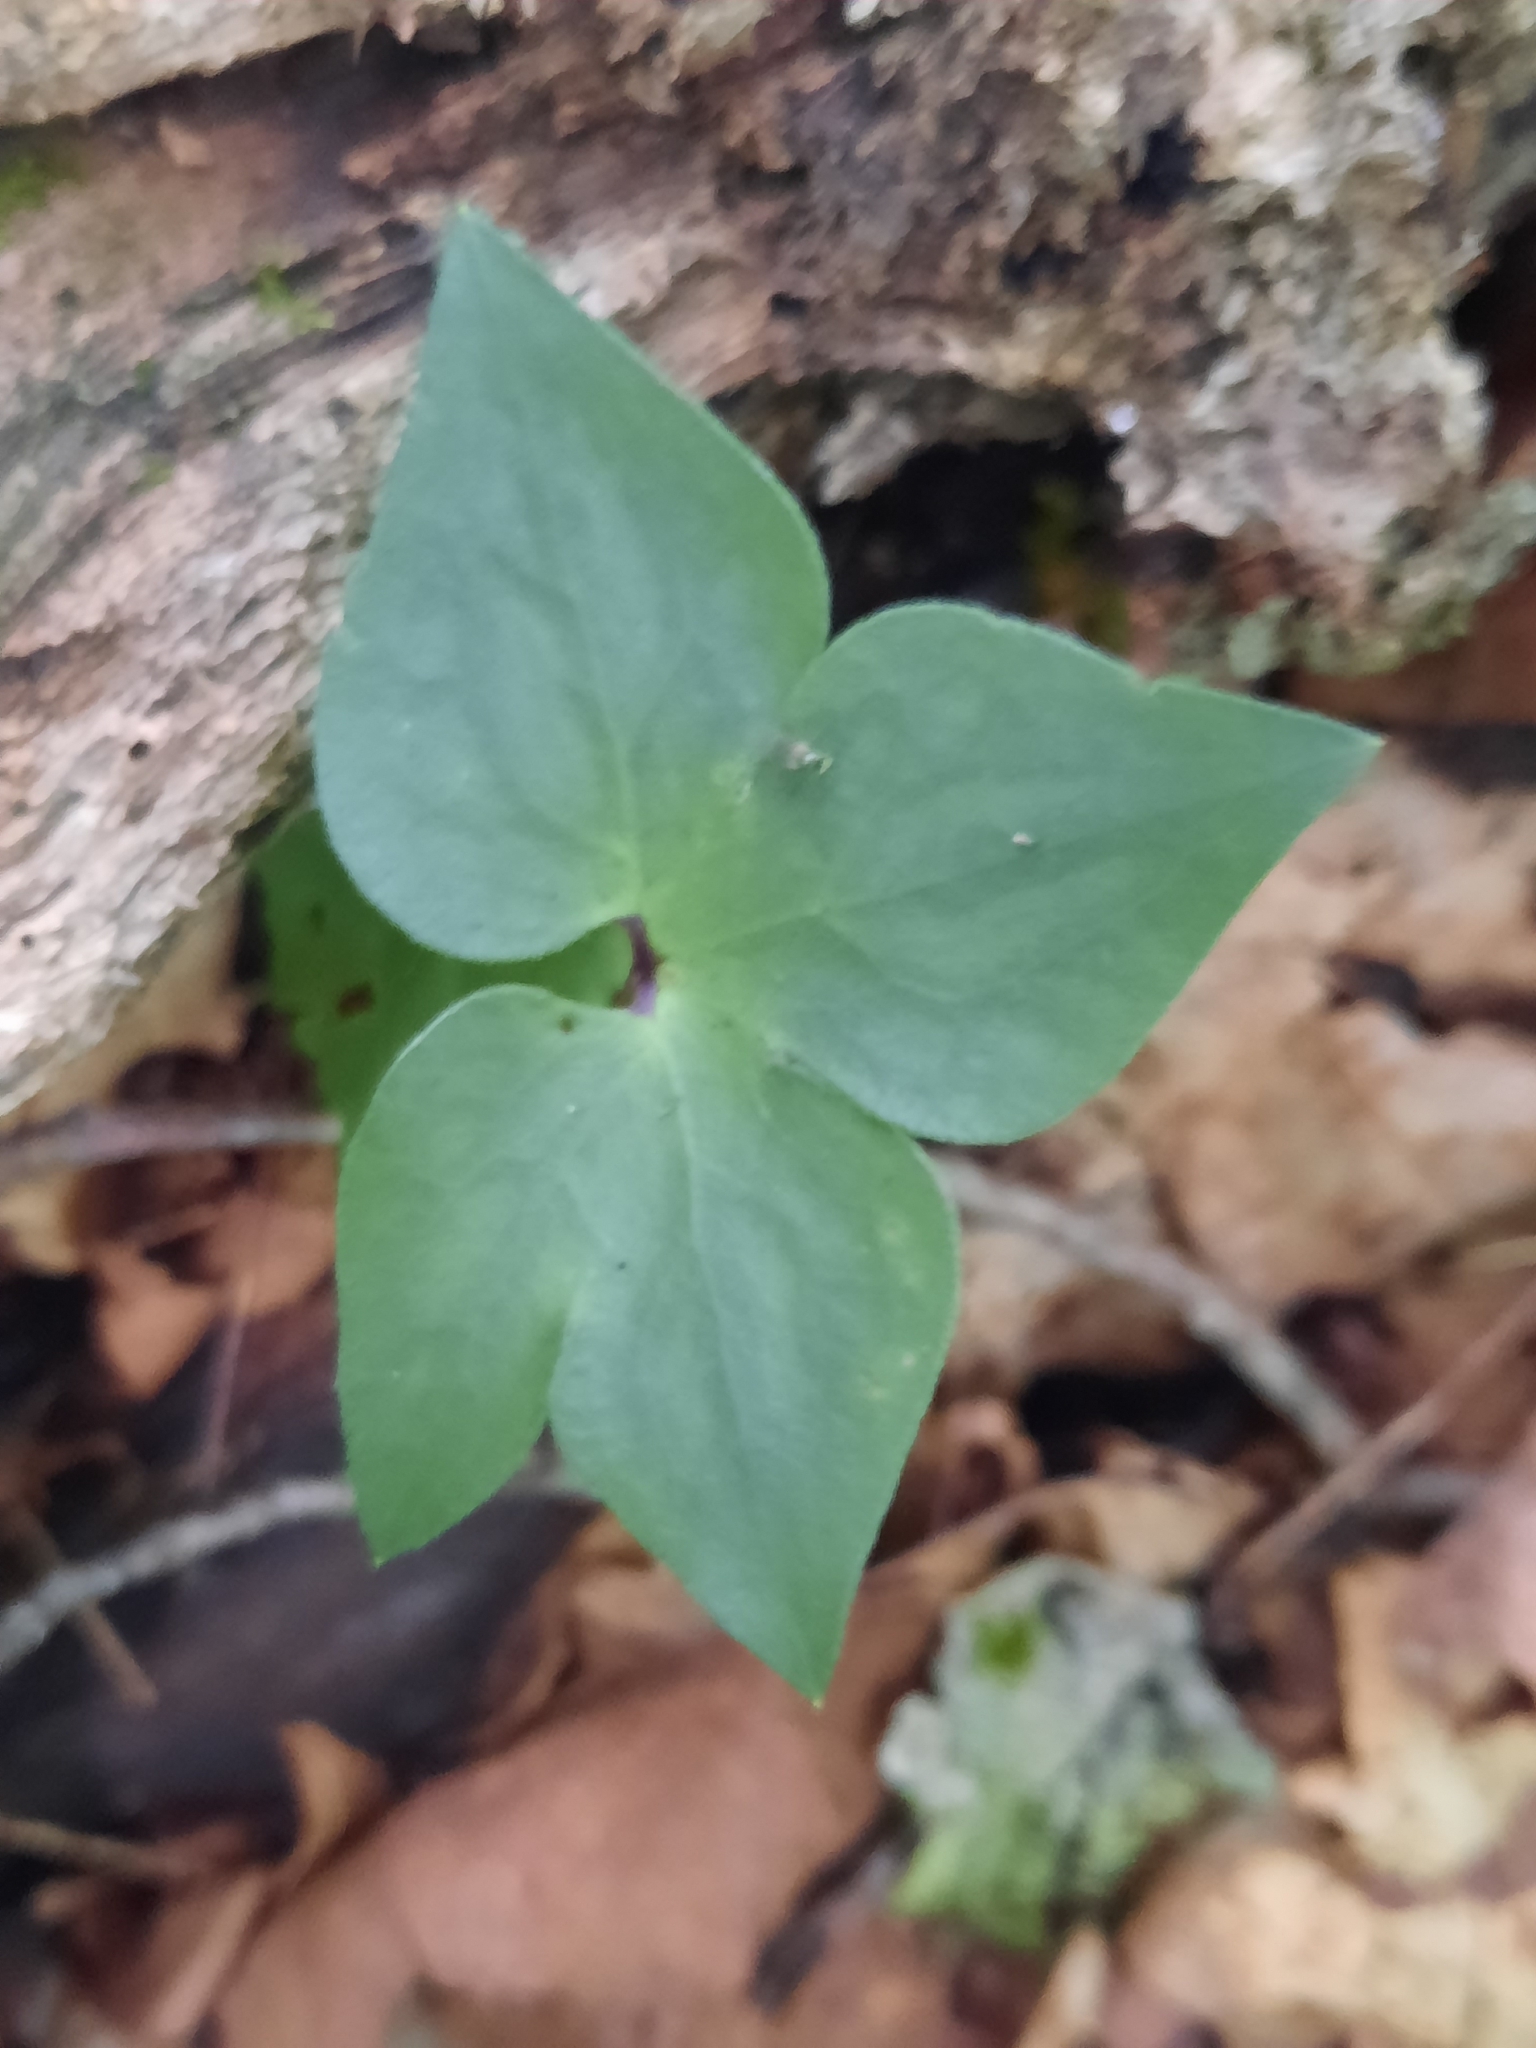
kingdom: Plantae
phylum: Tracheophyta
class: Magnoliopsida
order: Ranunculales
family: Ranunculaceae
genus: Hepatica
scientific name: Hepatica acutiloba
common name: Sharp-lobed hepatica
